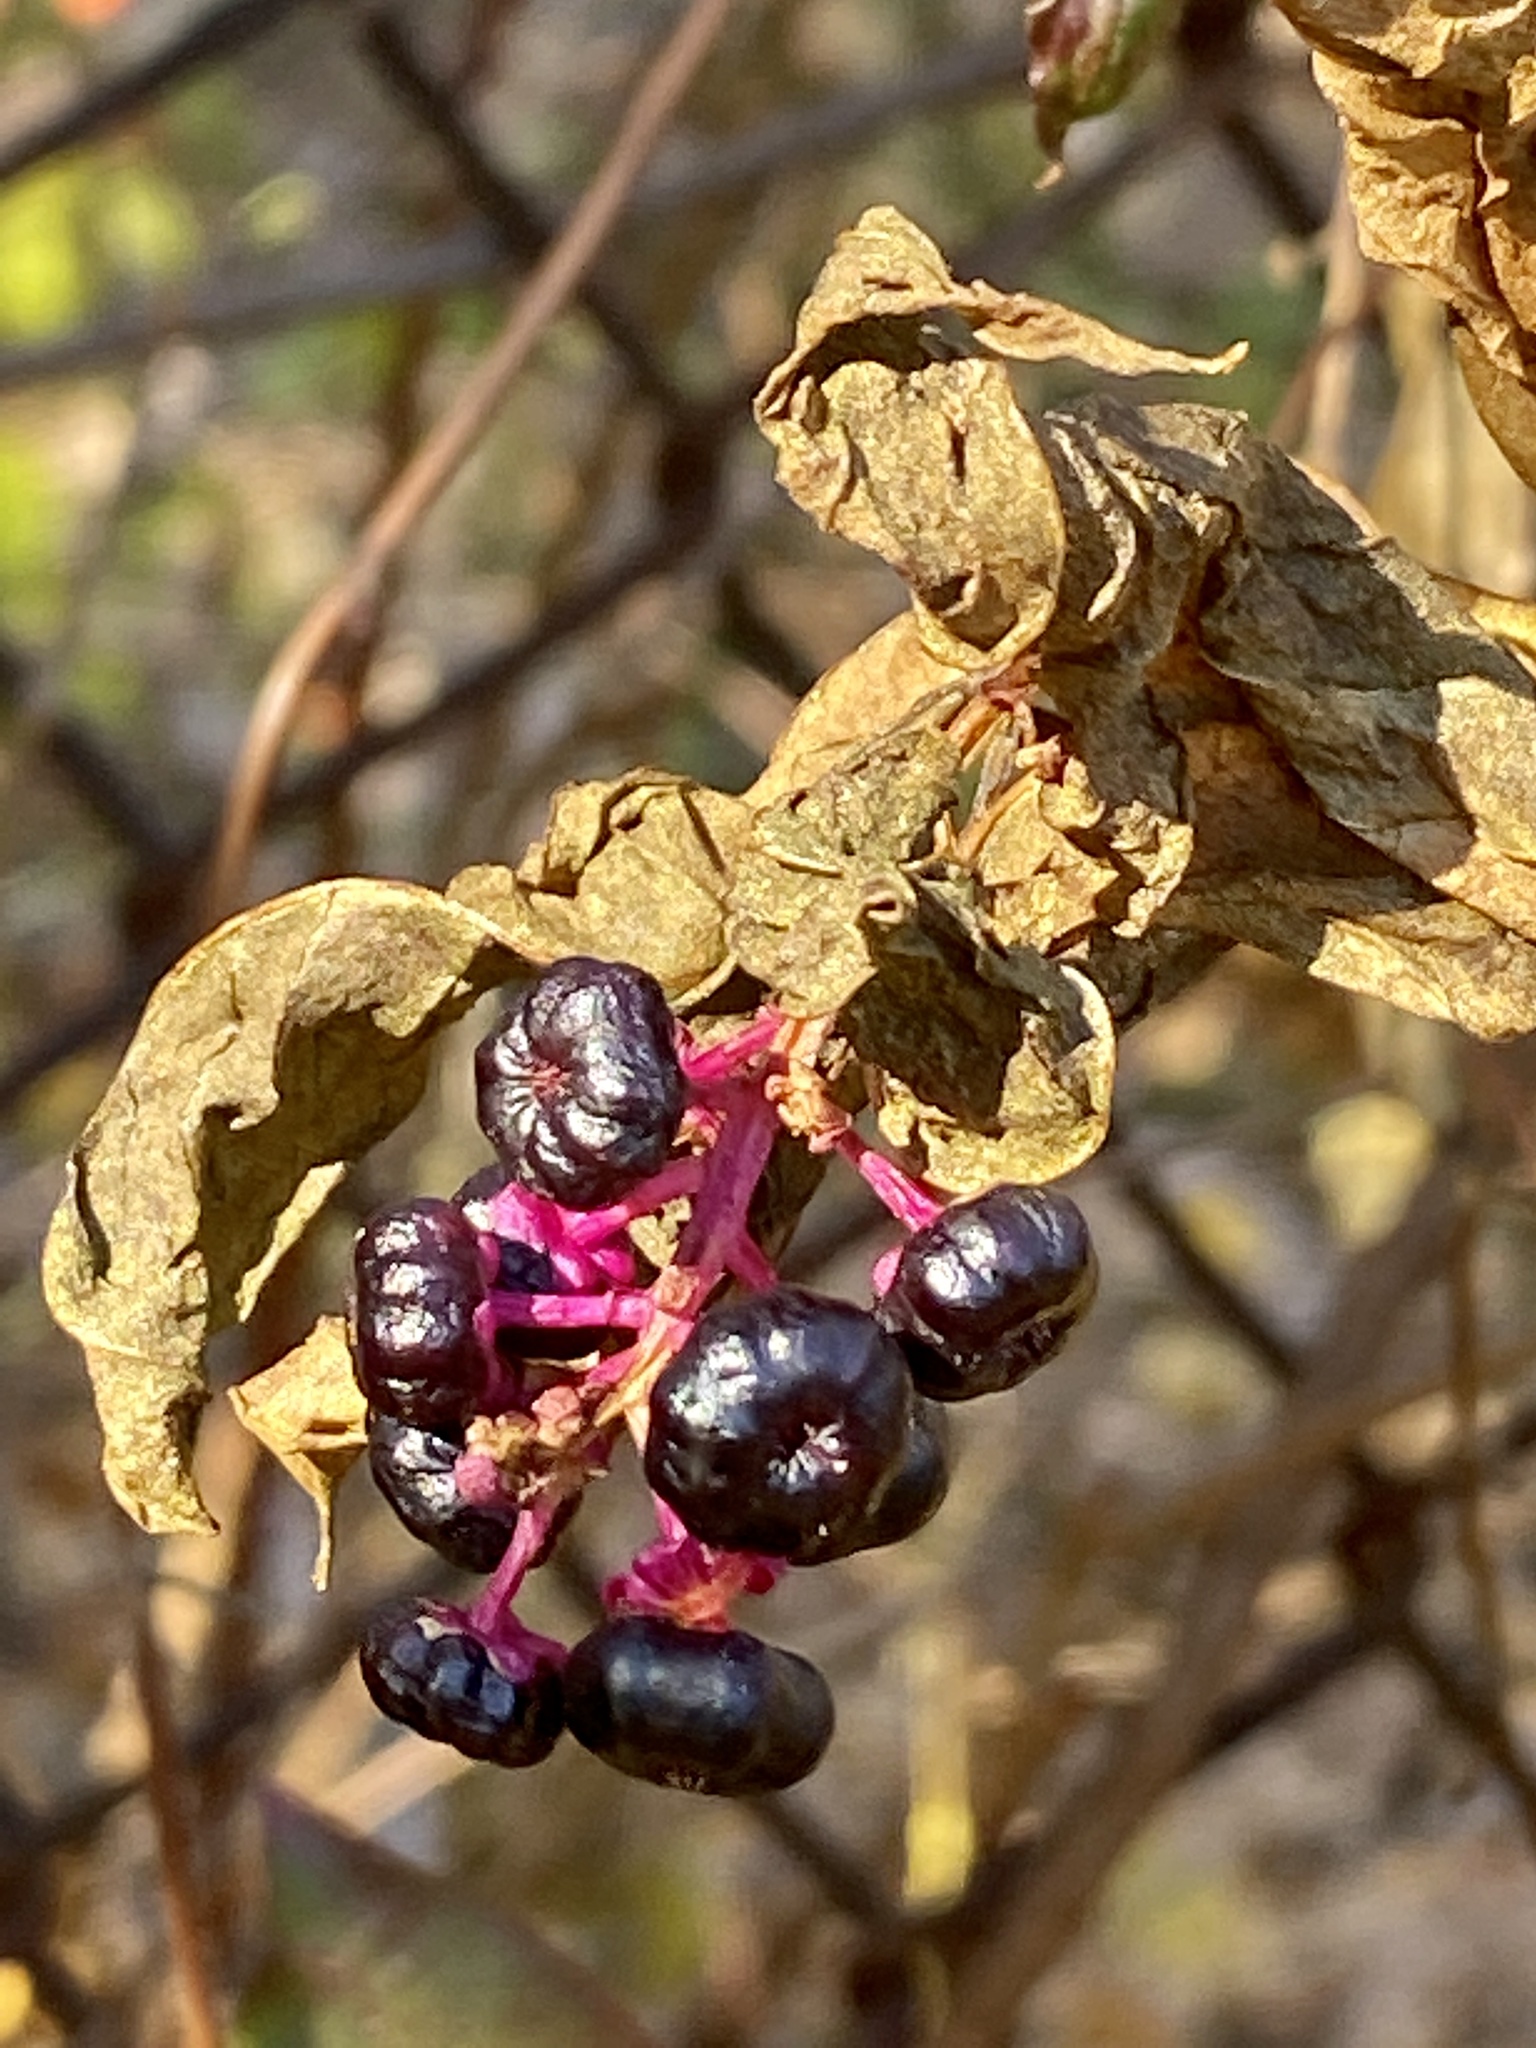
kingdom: Plantae
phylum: Tracheophyta
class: Magnoliopsida
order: Caryophyllales
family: Phytolaccaceae
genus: Phytolacca
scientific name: Phytolacca americana
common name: American pokeweed
